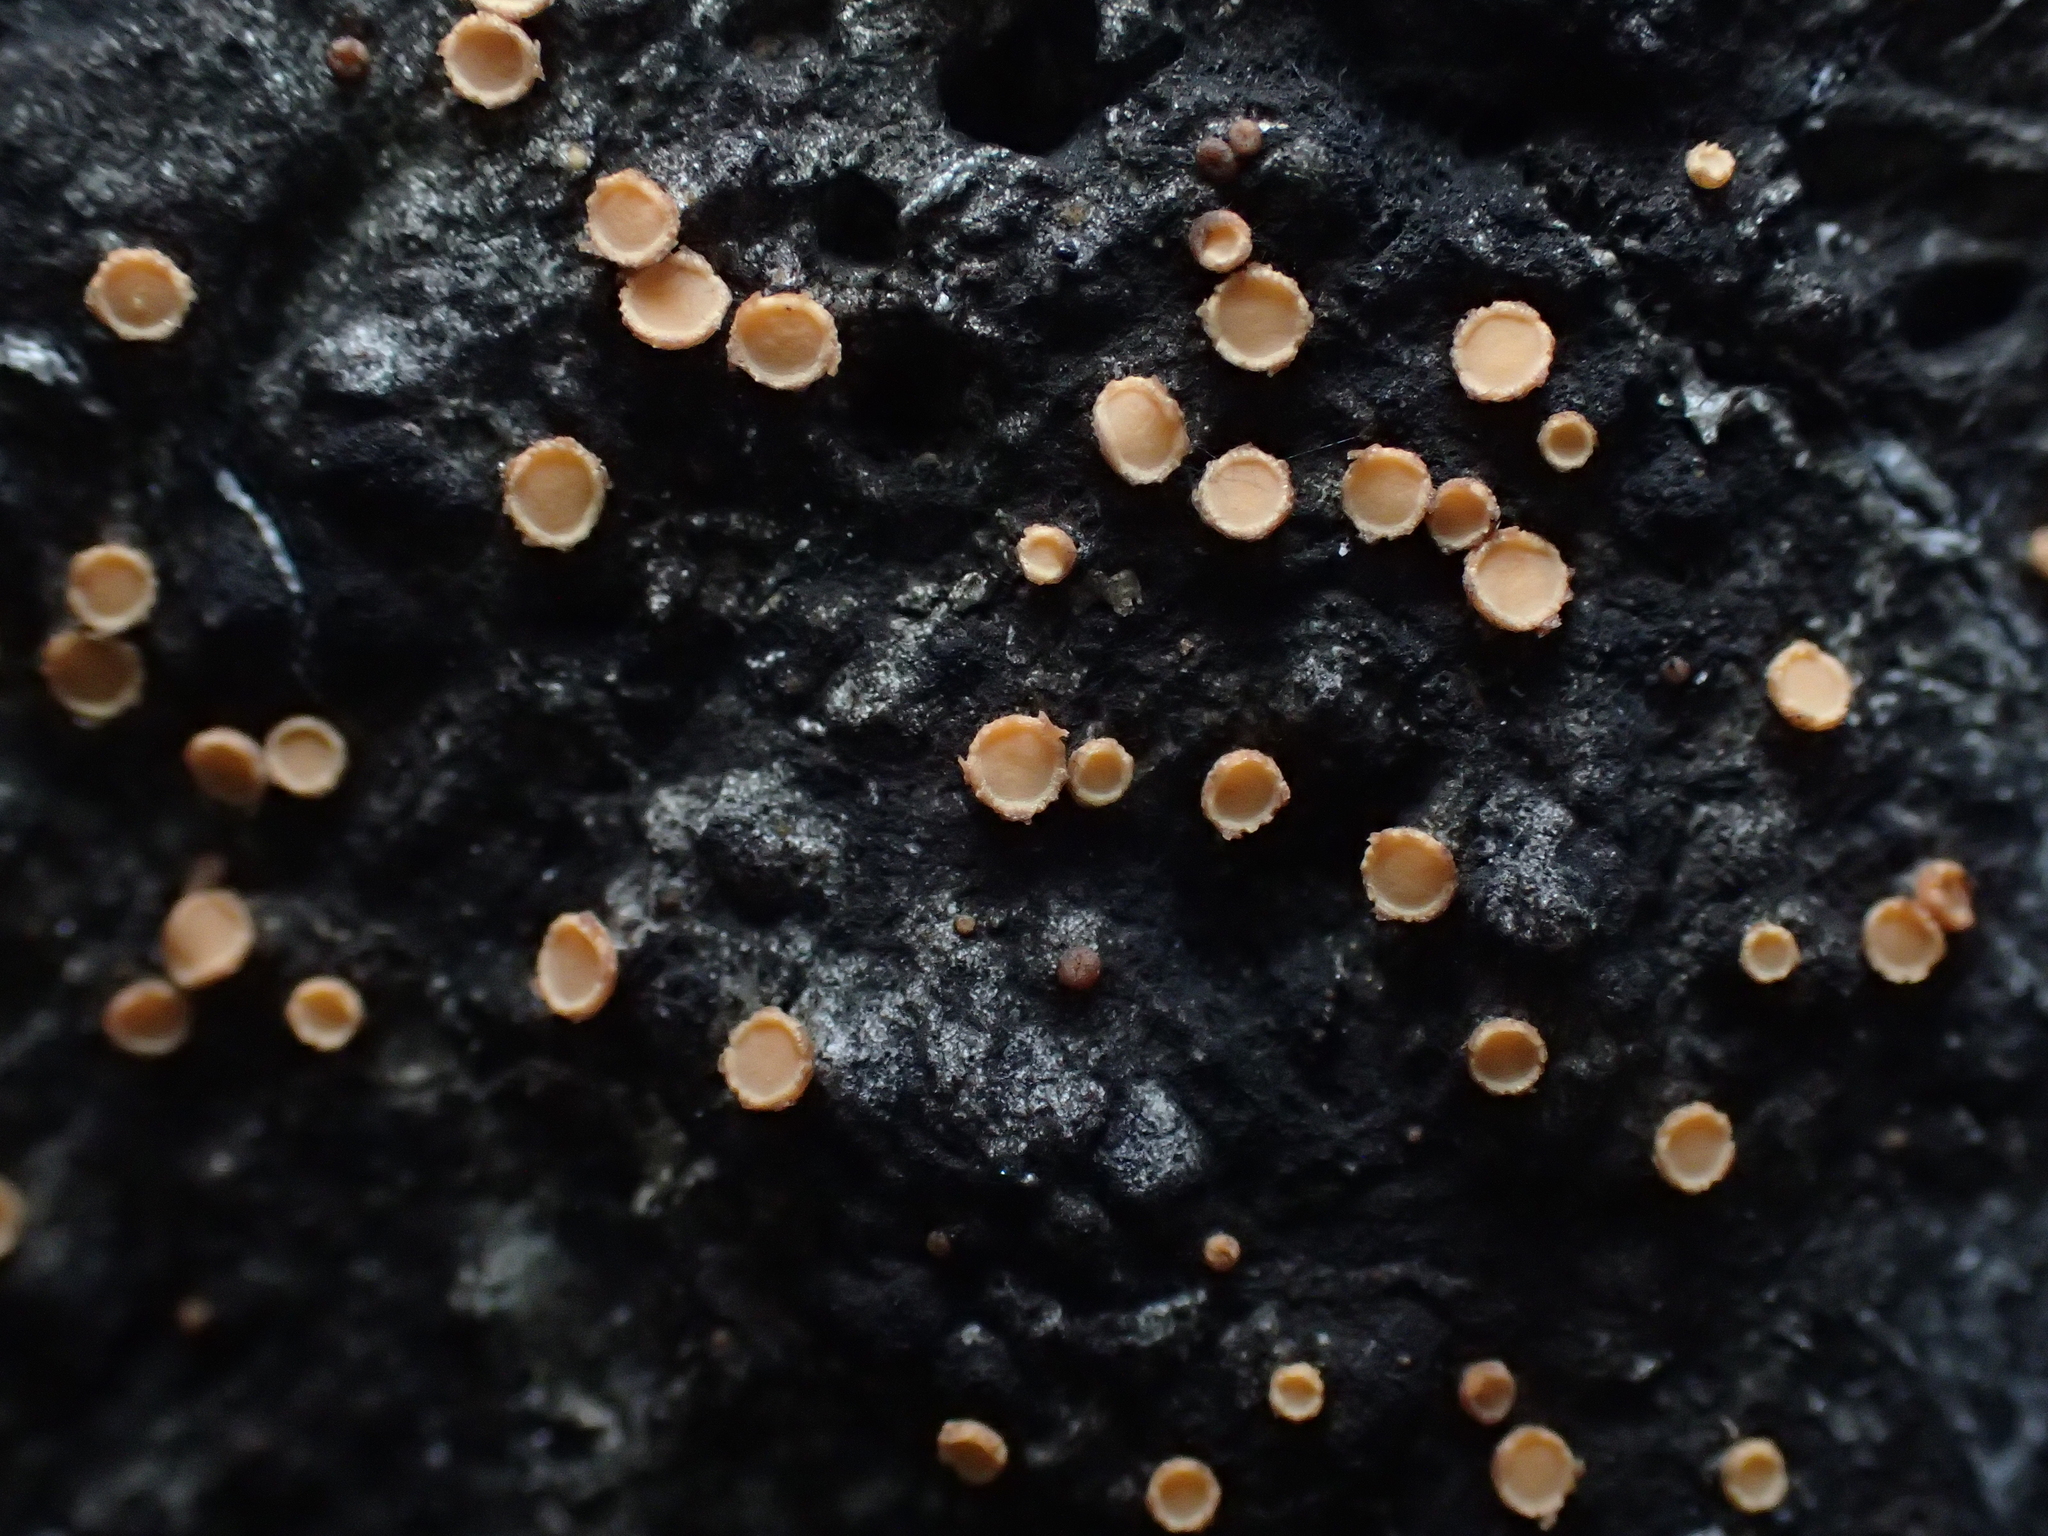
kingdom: Fungi
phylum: Ascomycota
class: Sareomycetes
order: Sareales
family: Sareaceae
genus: Sarea
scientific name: Sarea resinae
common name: Sarea lichen
